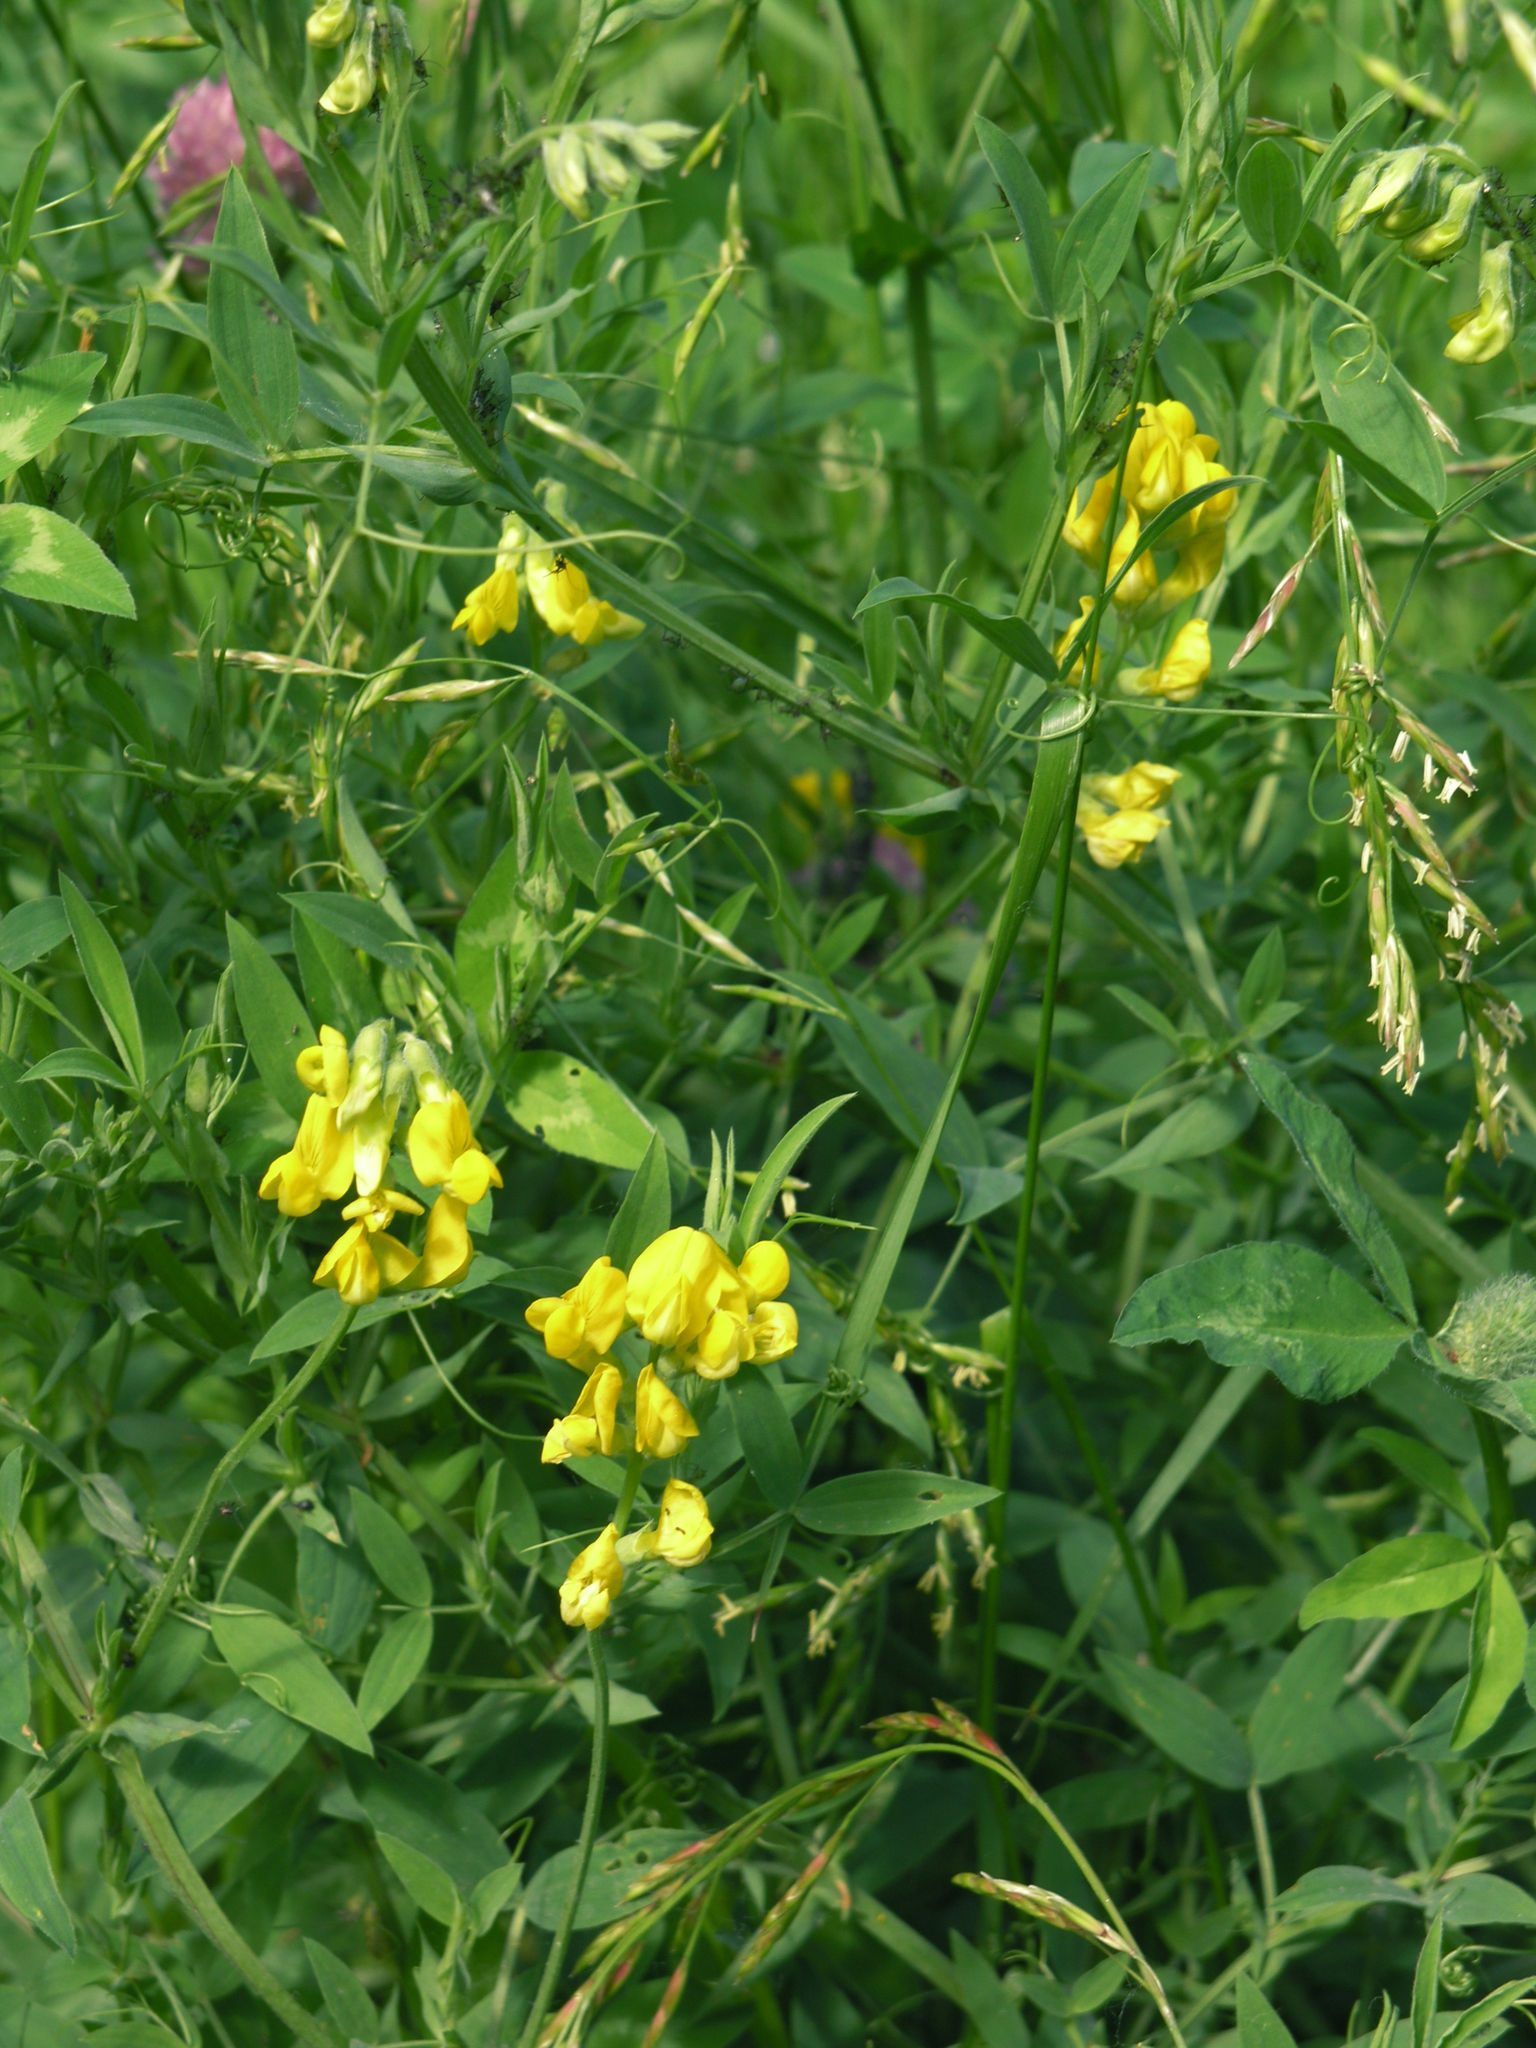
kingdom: Plantae
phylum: Tracheophyta
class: Magnoliopsida
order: Fabales
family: Fabaceae
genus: Lathyrus
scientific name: Lathyrus pratensis
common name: Meadow vetchling
